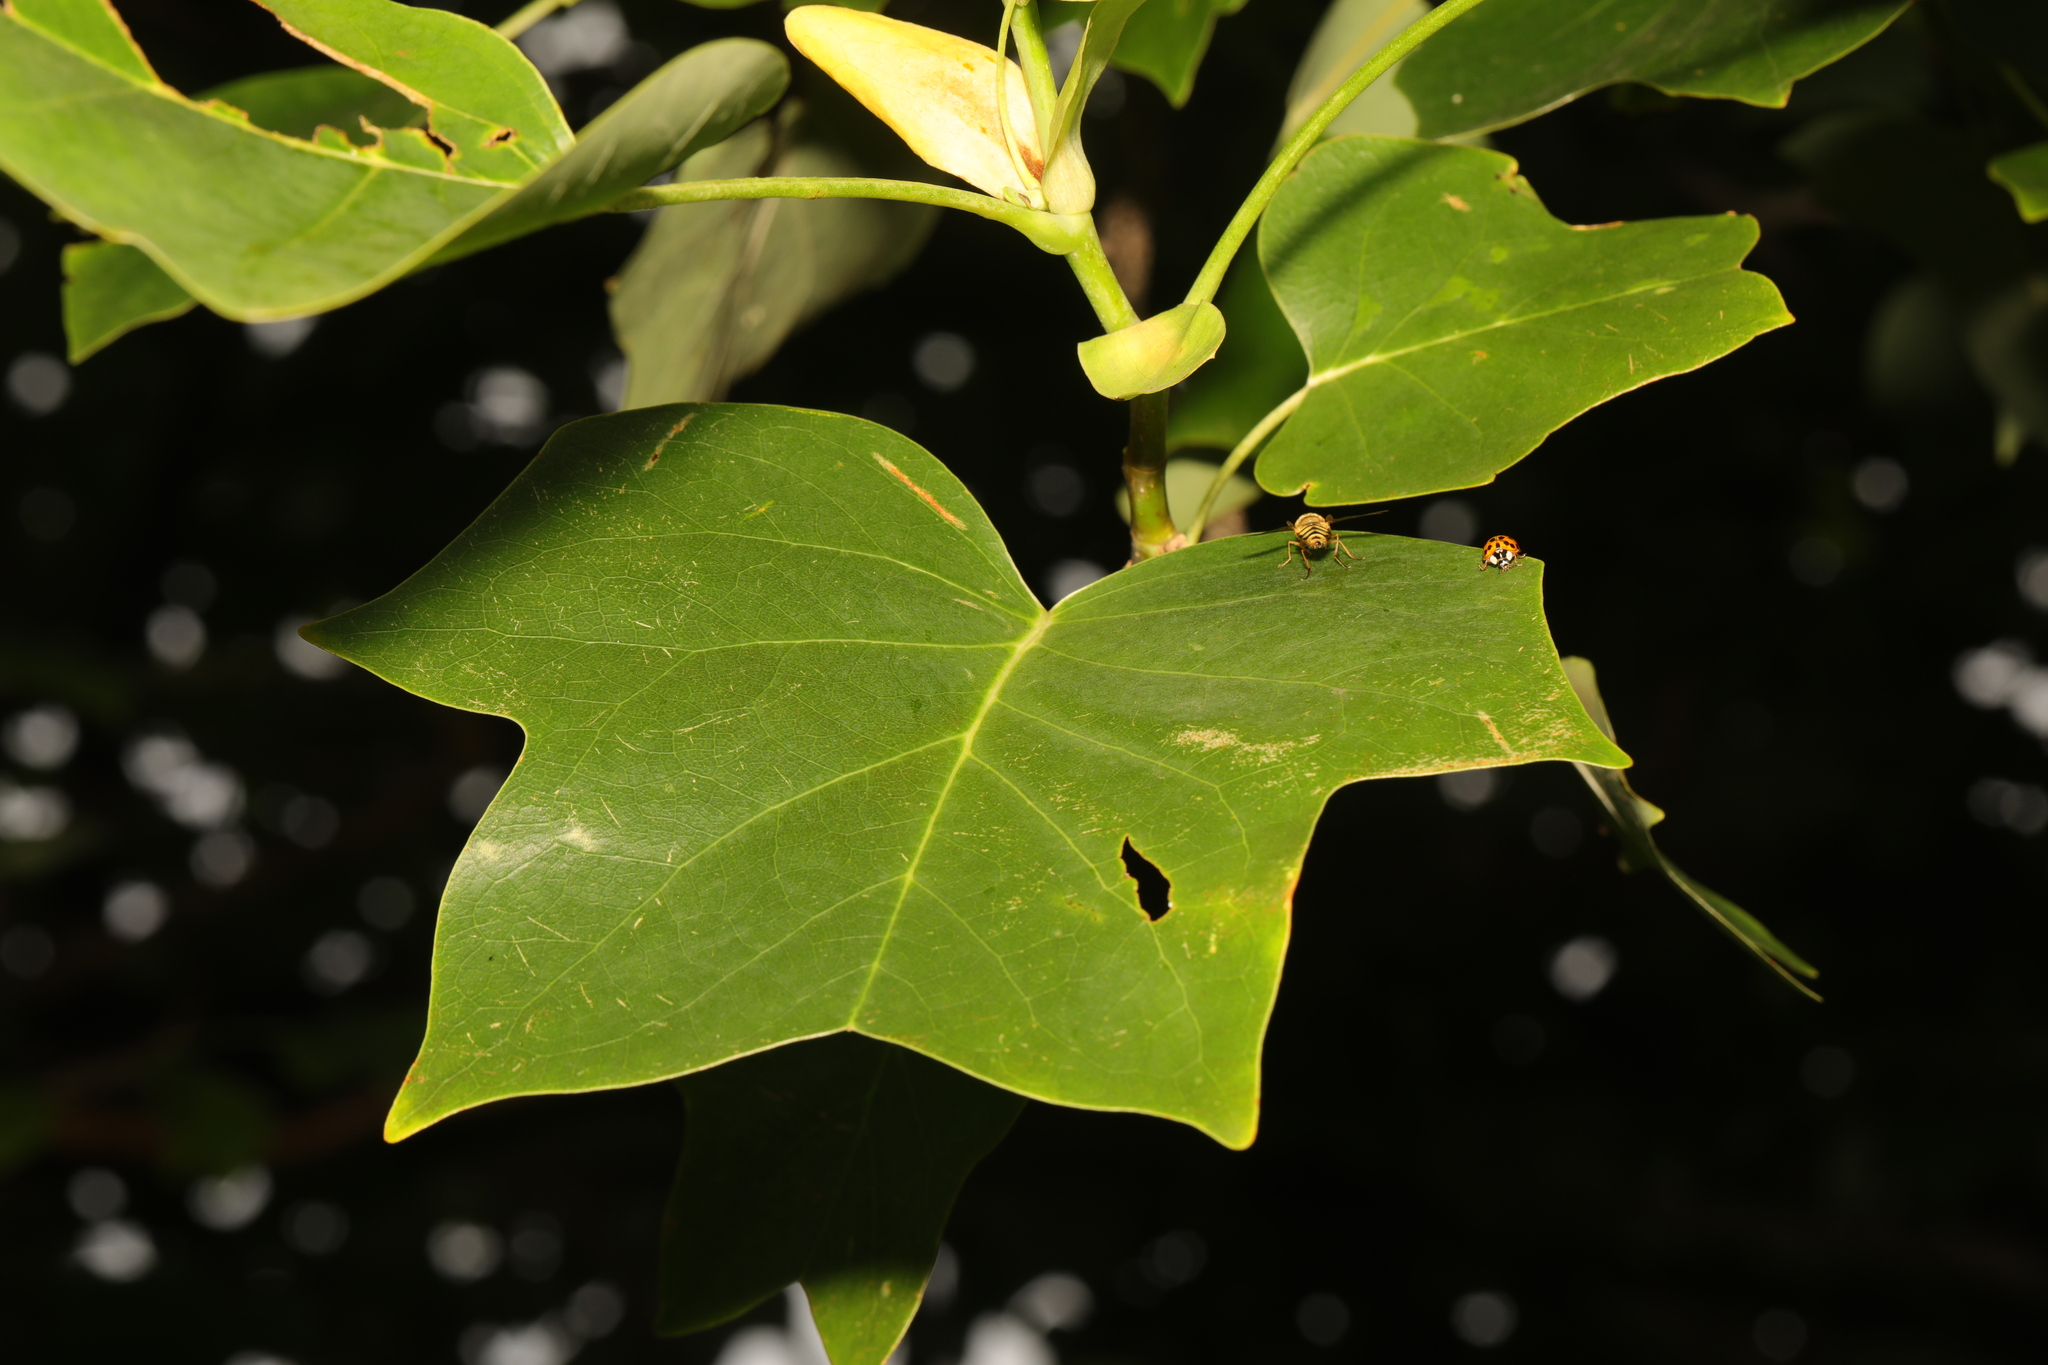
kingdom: Plantae
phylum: Tracheophyta
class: Magnoliopsida
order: Magnoliales
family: Magnoliaceae
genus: Liriodendron
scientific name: Liriodendron tulipifera
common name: Tulip tree
